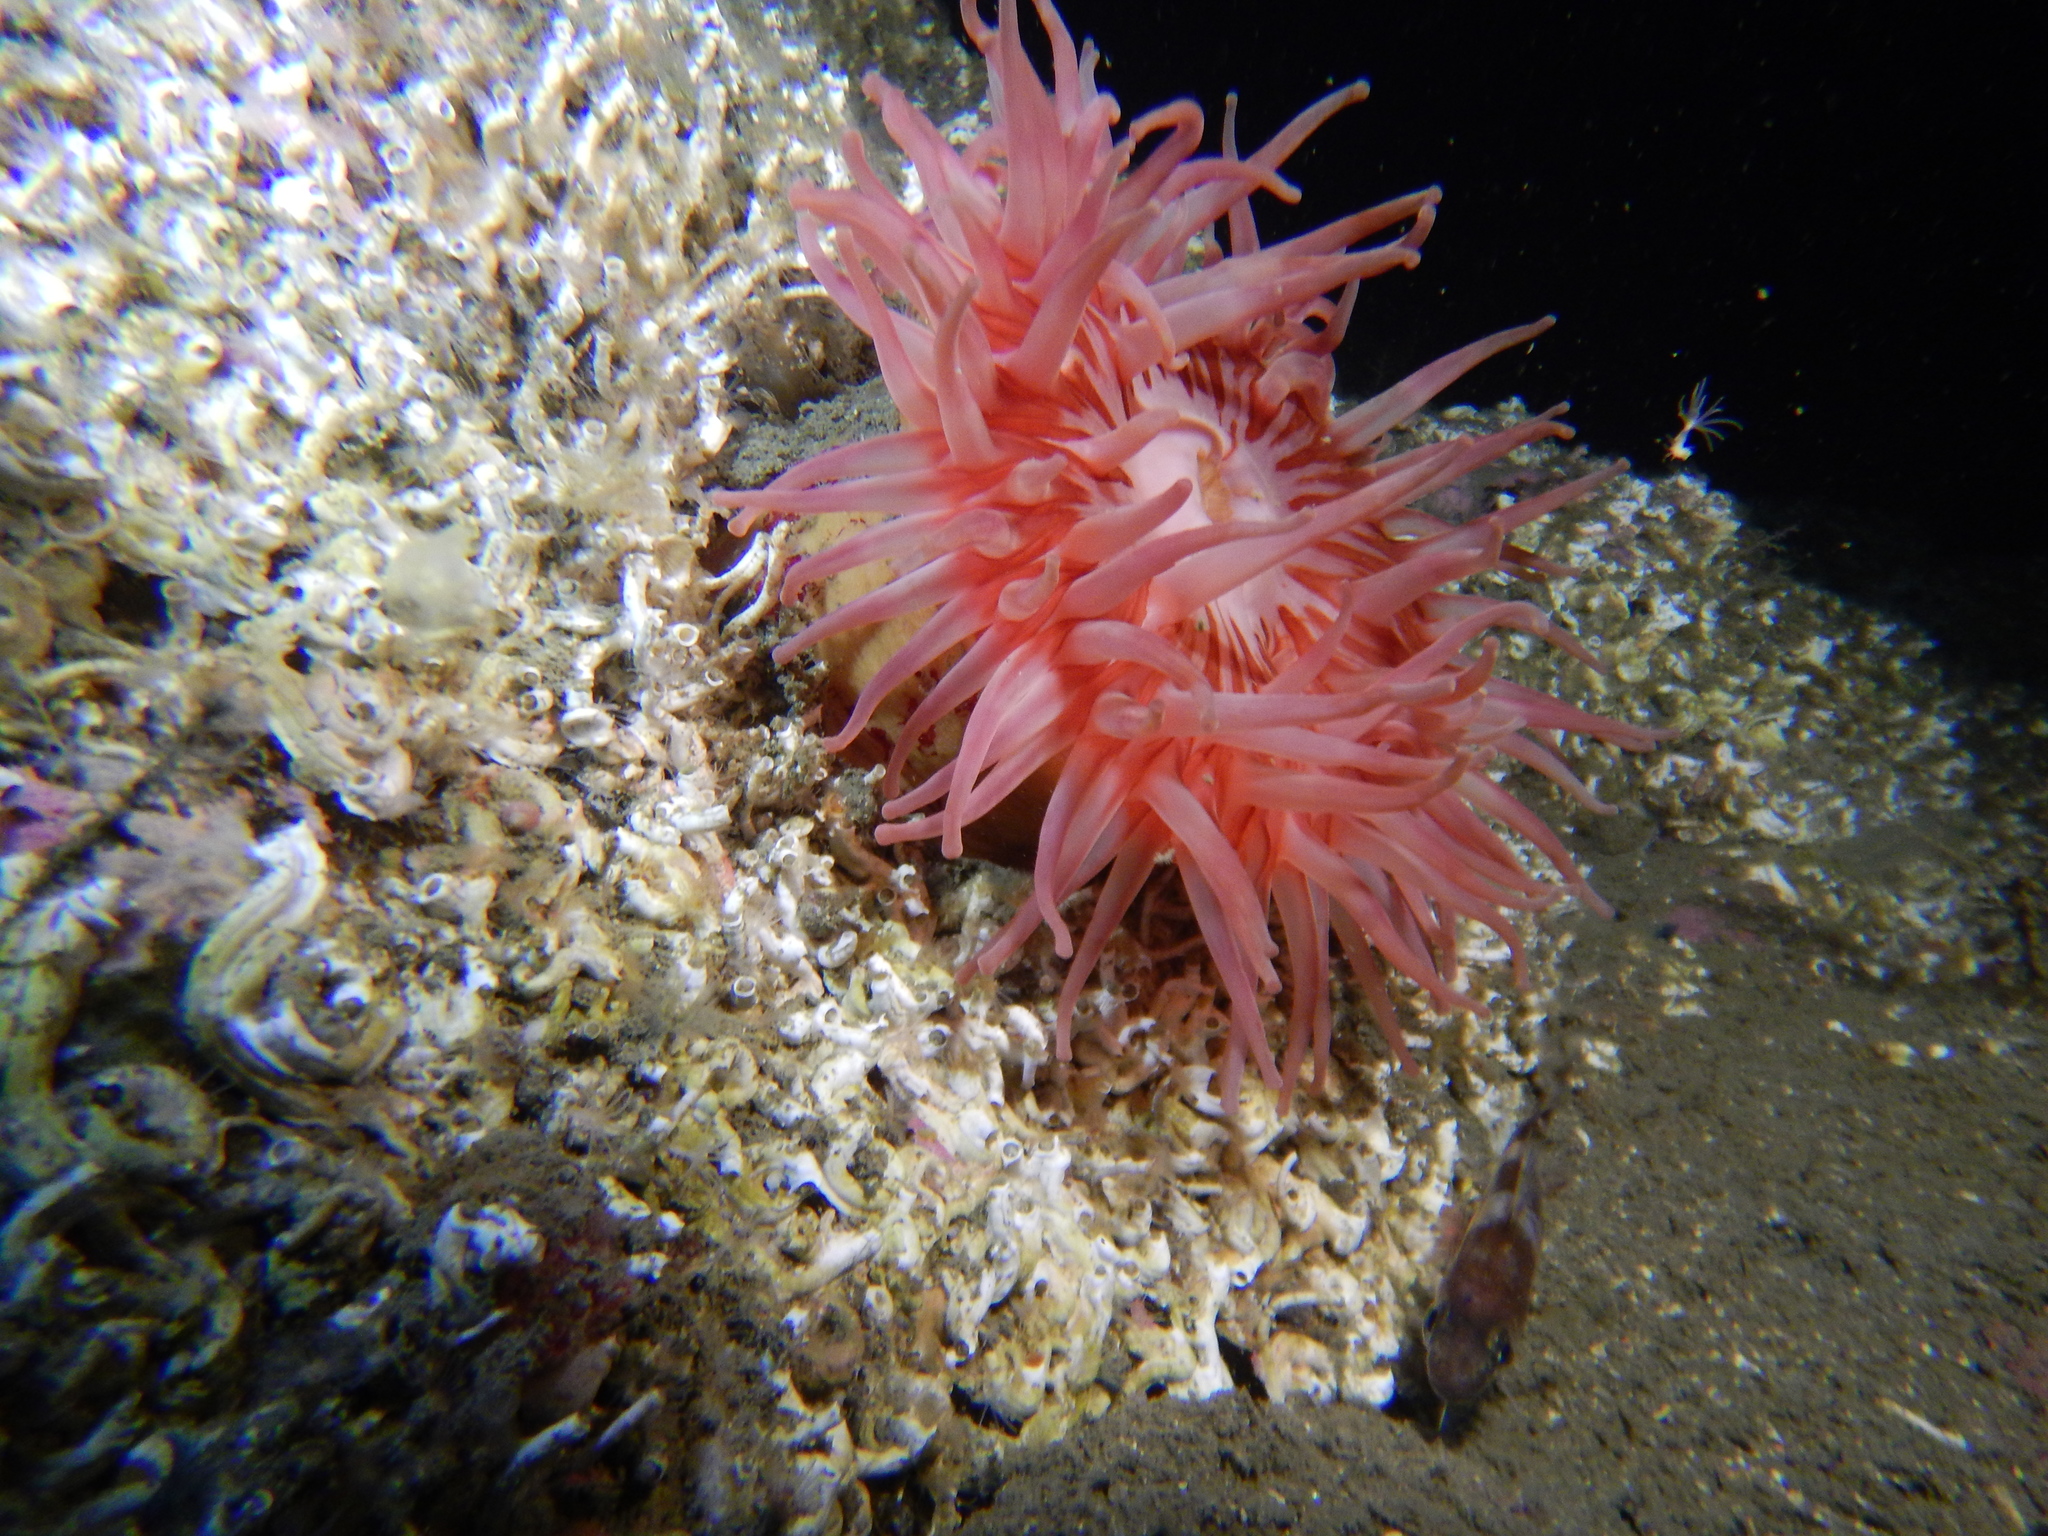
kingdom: Animalia
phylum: Cnidaria
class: Anthozoa
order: Actiniaria
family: Actiniidae
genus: Urticina
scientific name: Urticina eques
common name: Horseman anemone
